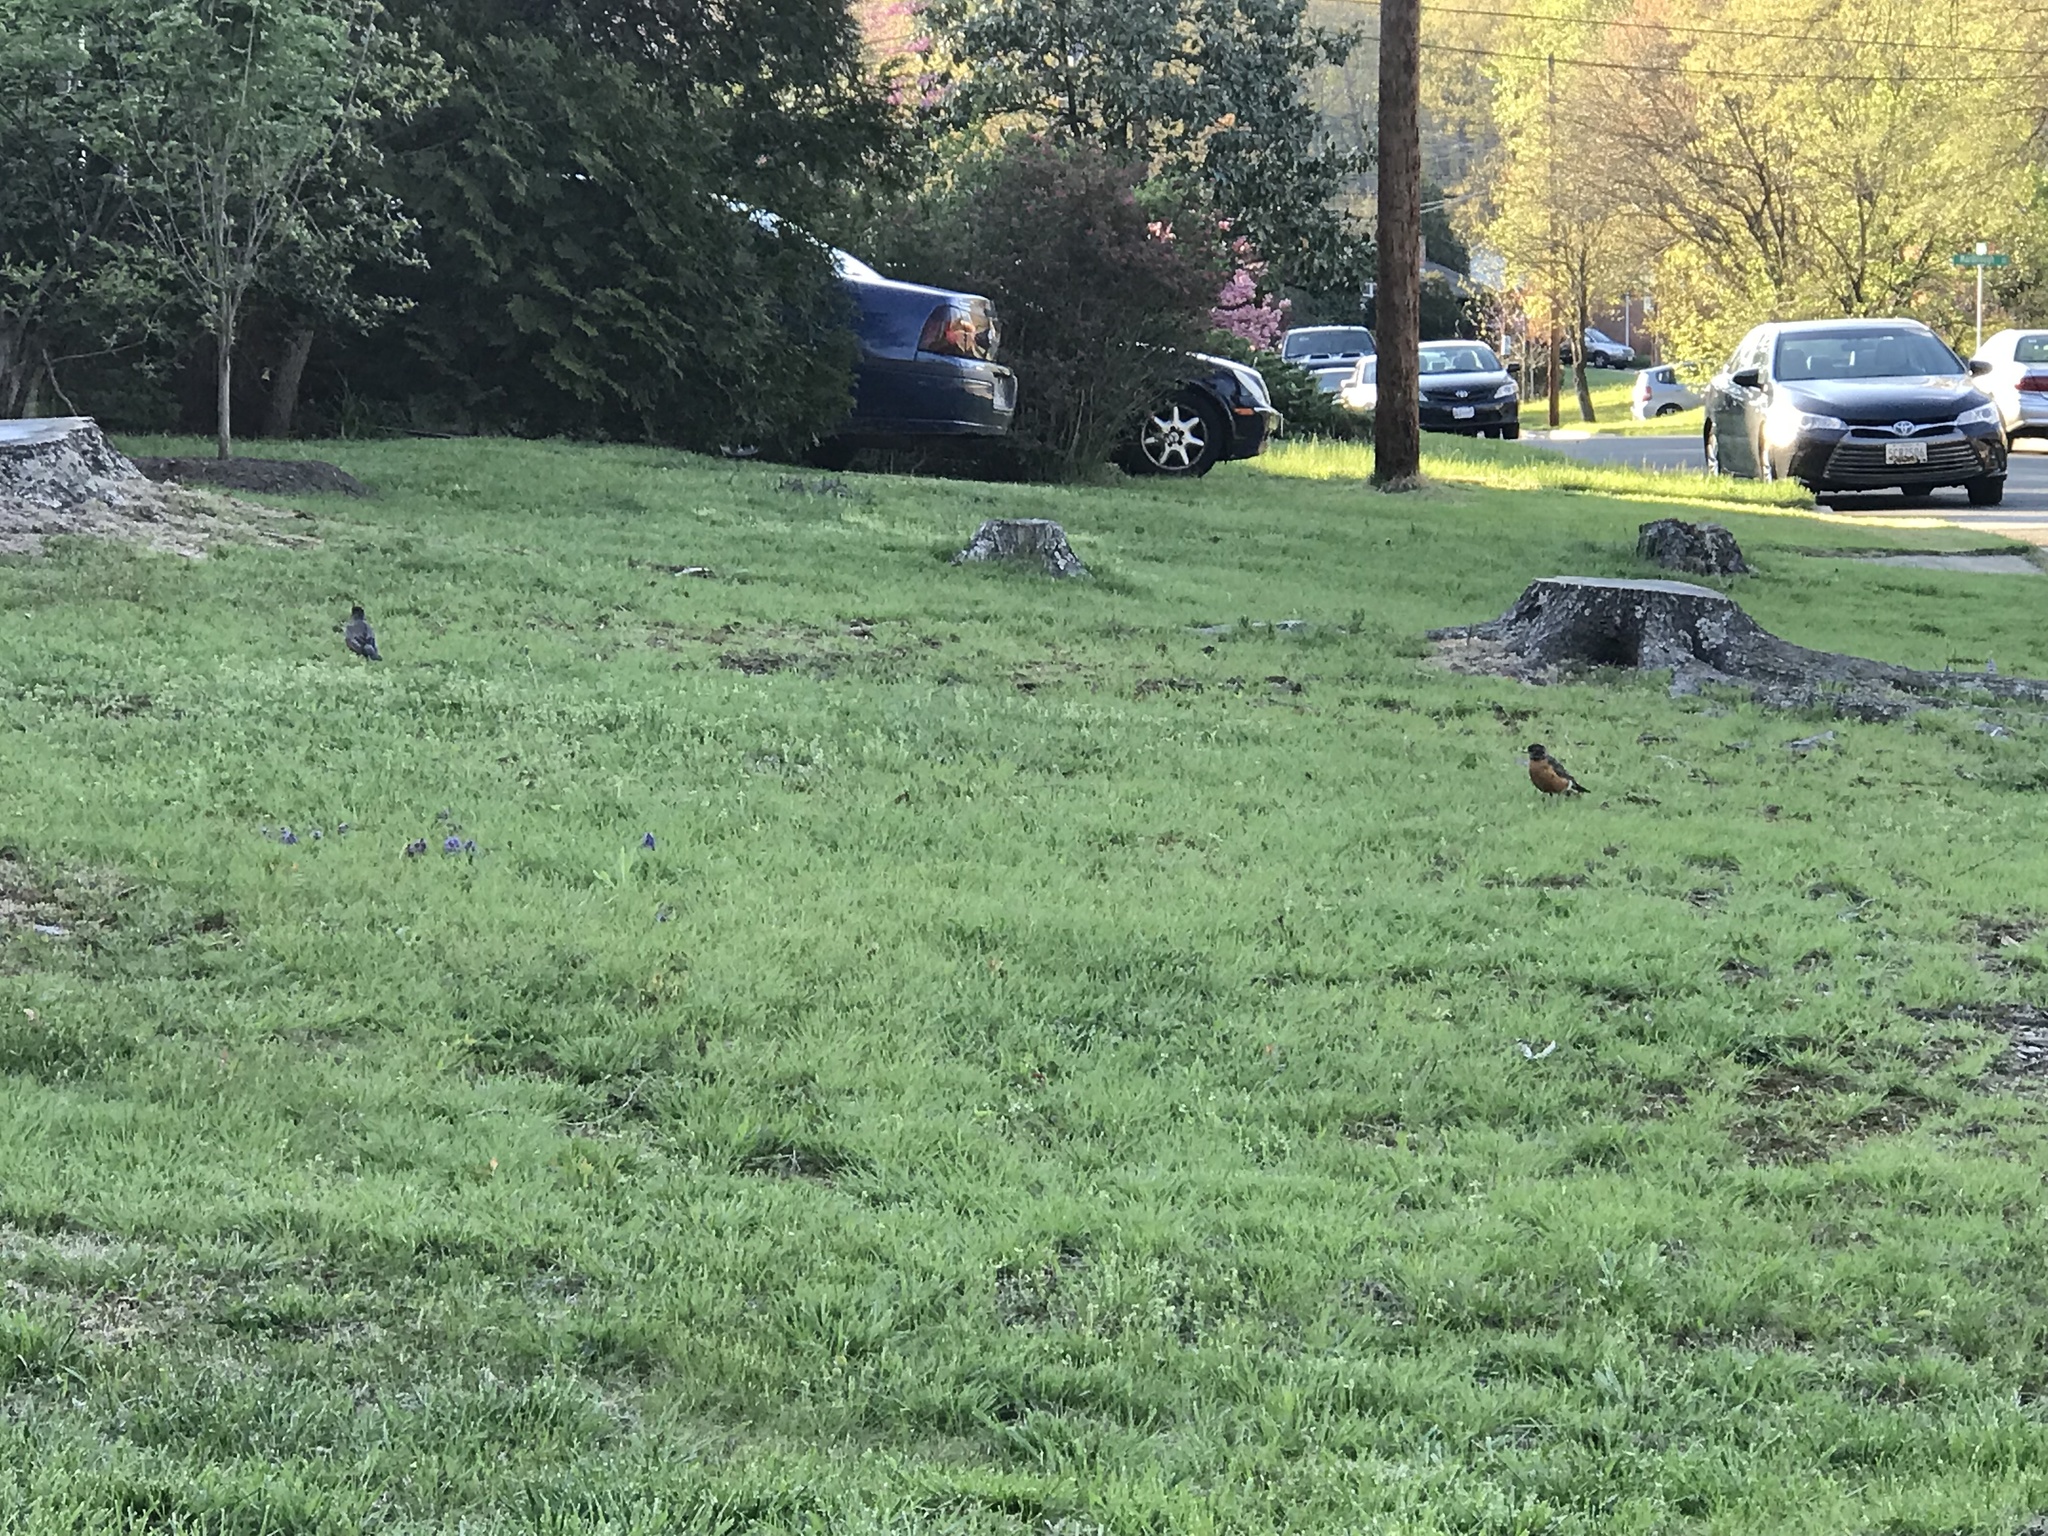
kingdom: Animalia
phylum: Chordata
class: Aves
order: Passeriformes
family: Turdidae
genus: Turdus
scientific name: Turdus migratorius
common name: American robin
